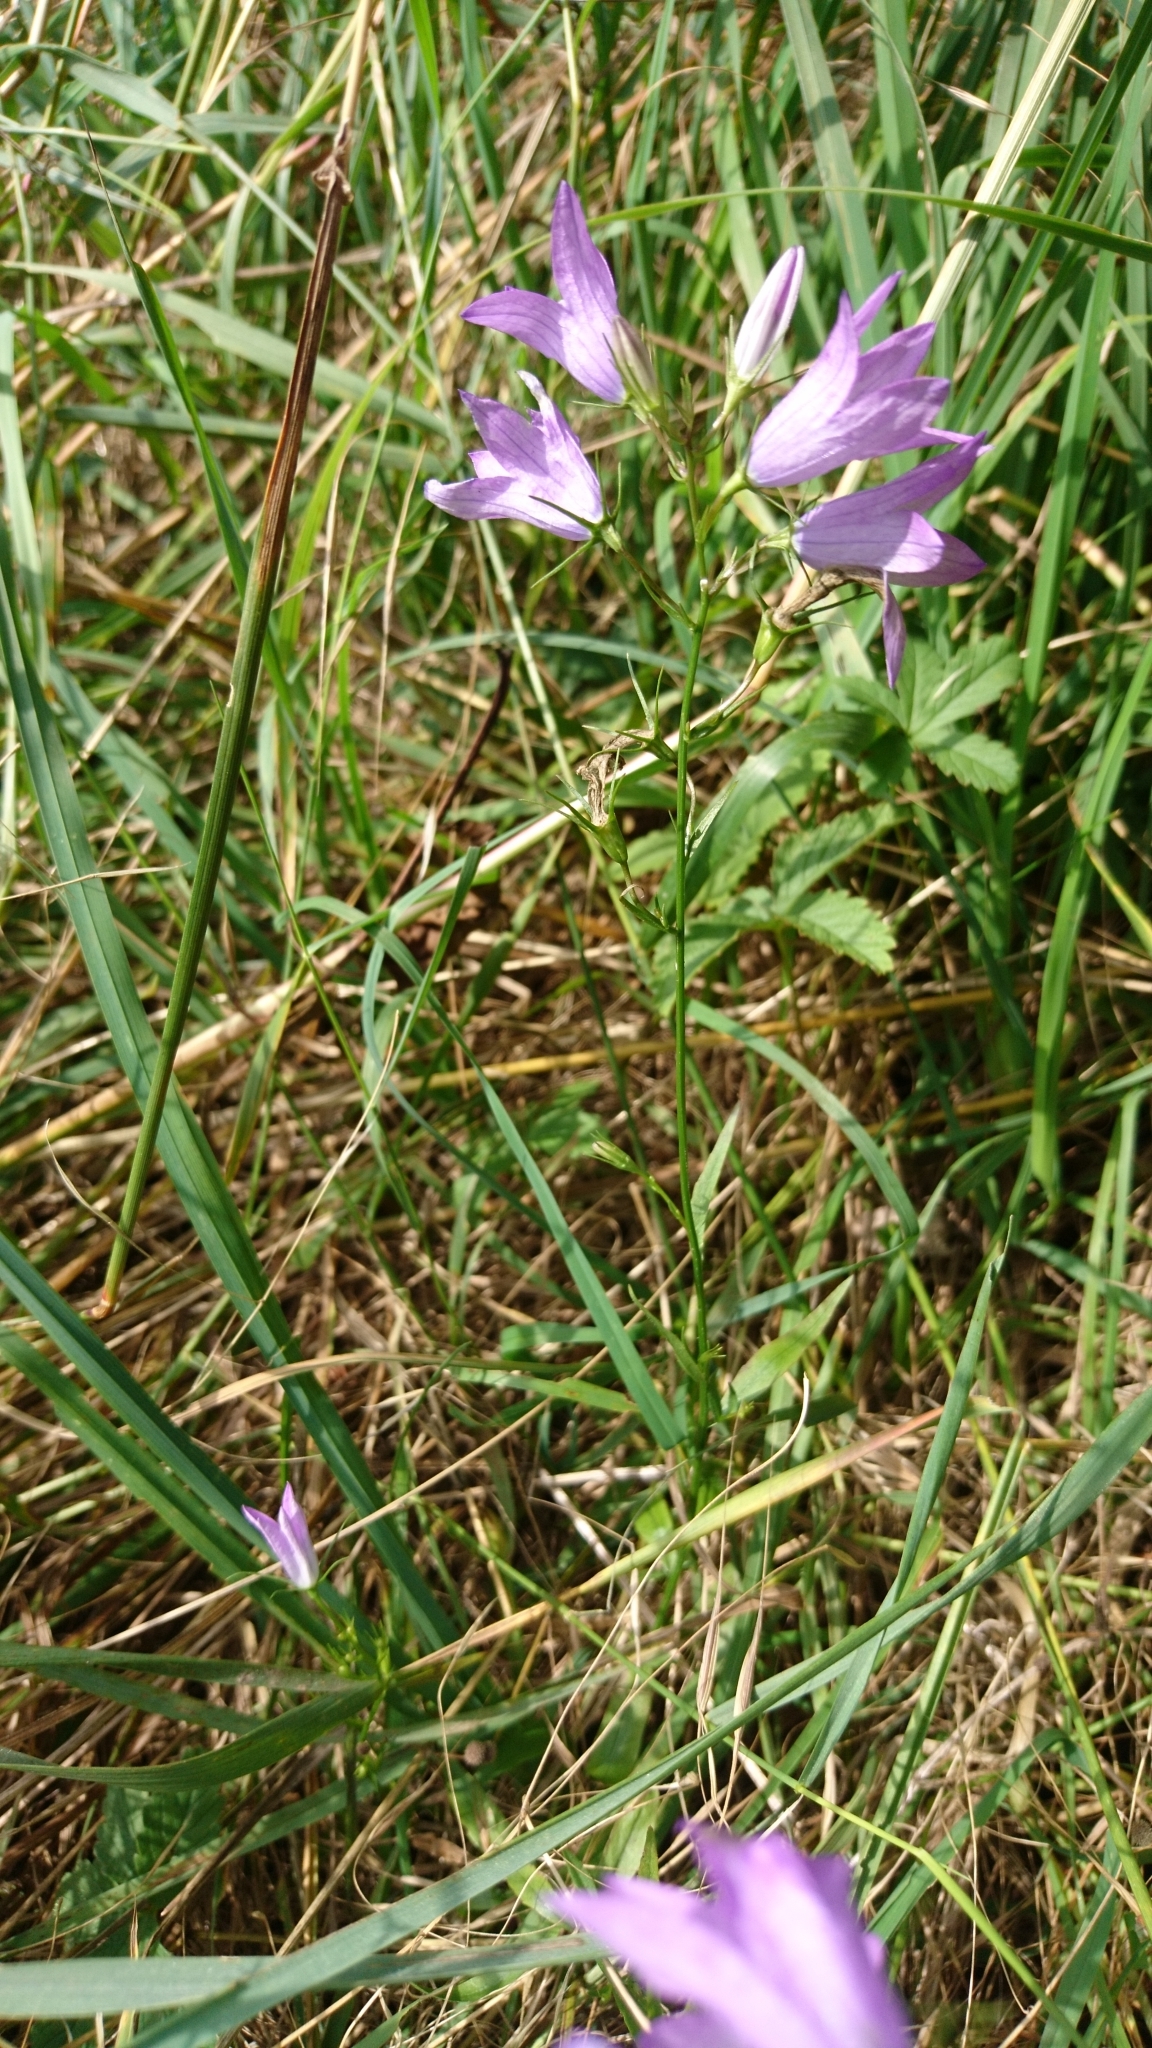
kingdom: Plantae
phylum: Tracheophyta
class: Magnoliopsida
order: Asterales
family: Campanulaceae
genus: Campanula
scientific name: Campanula patula
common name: Spreading bellflower
